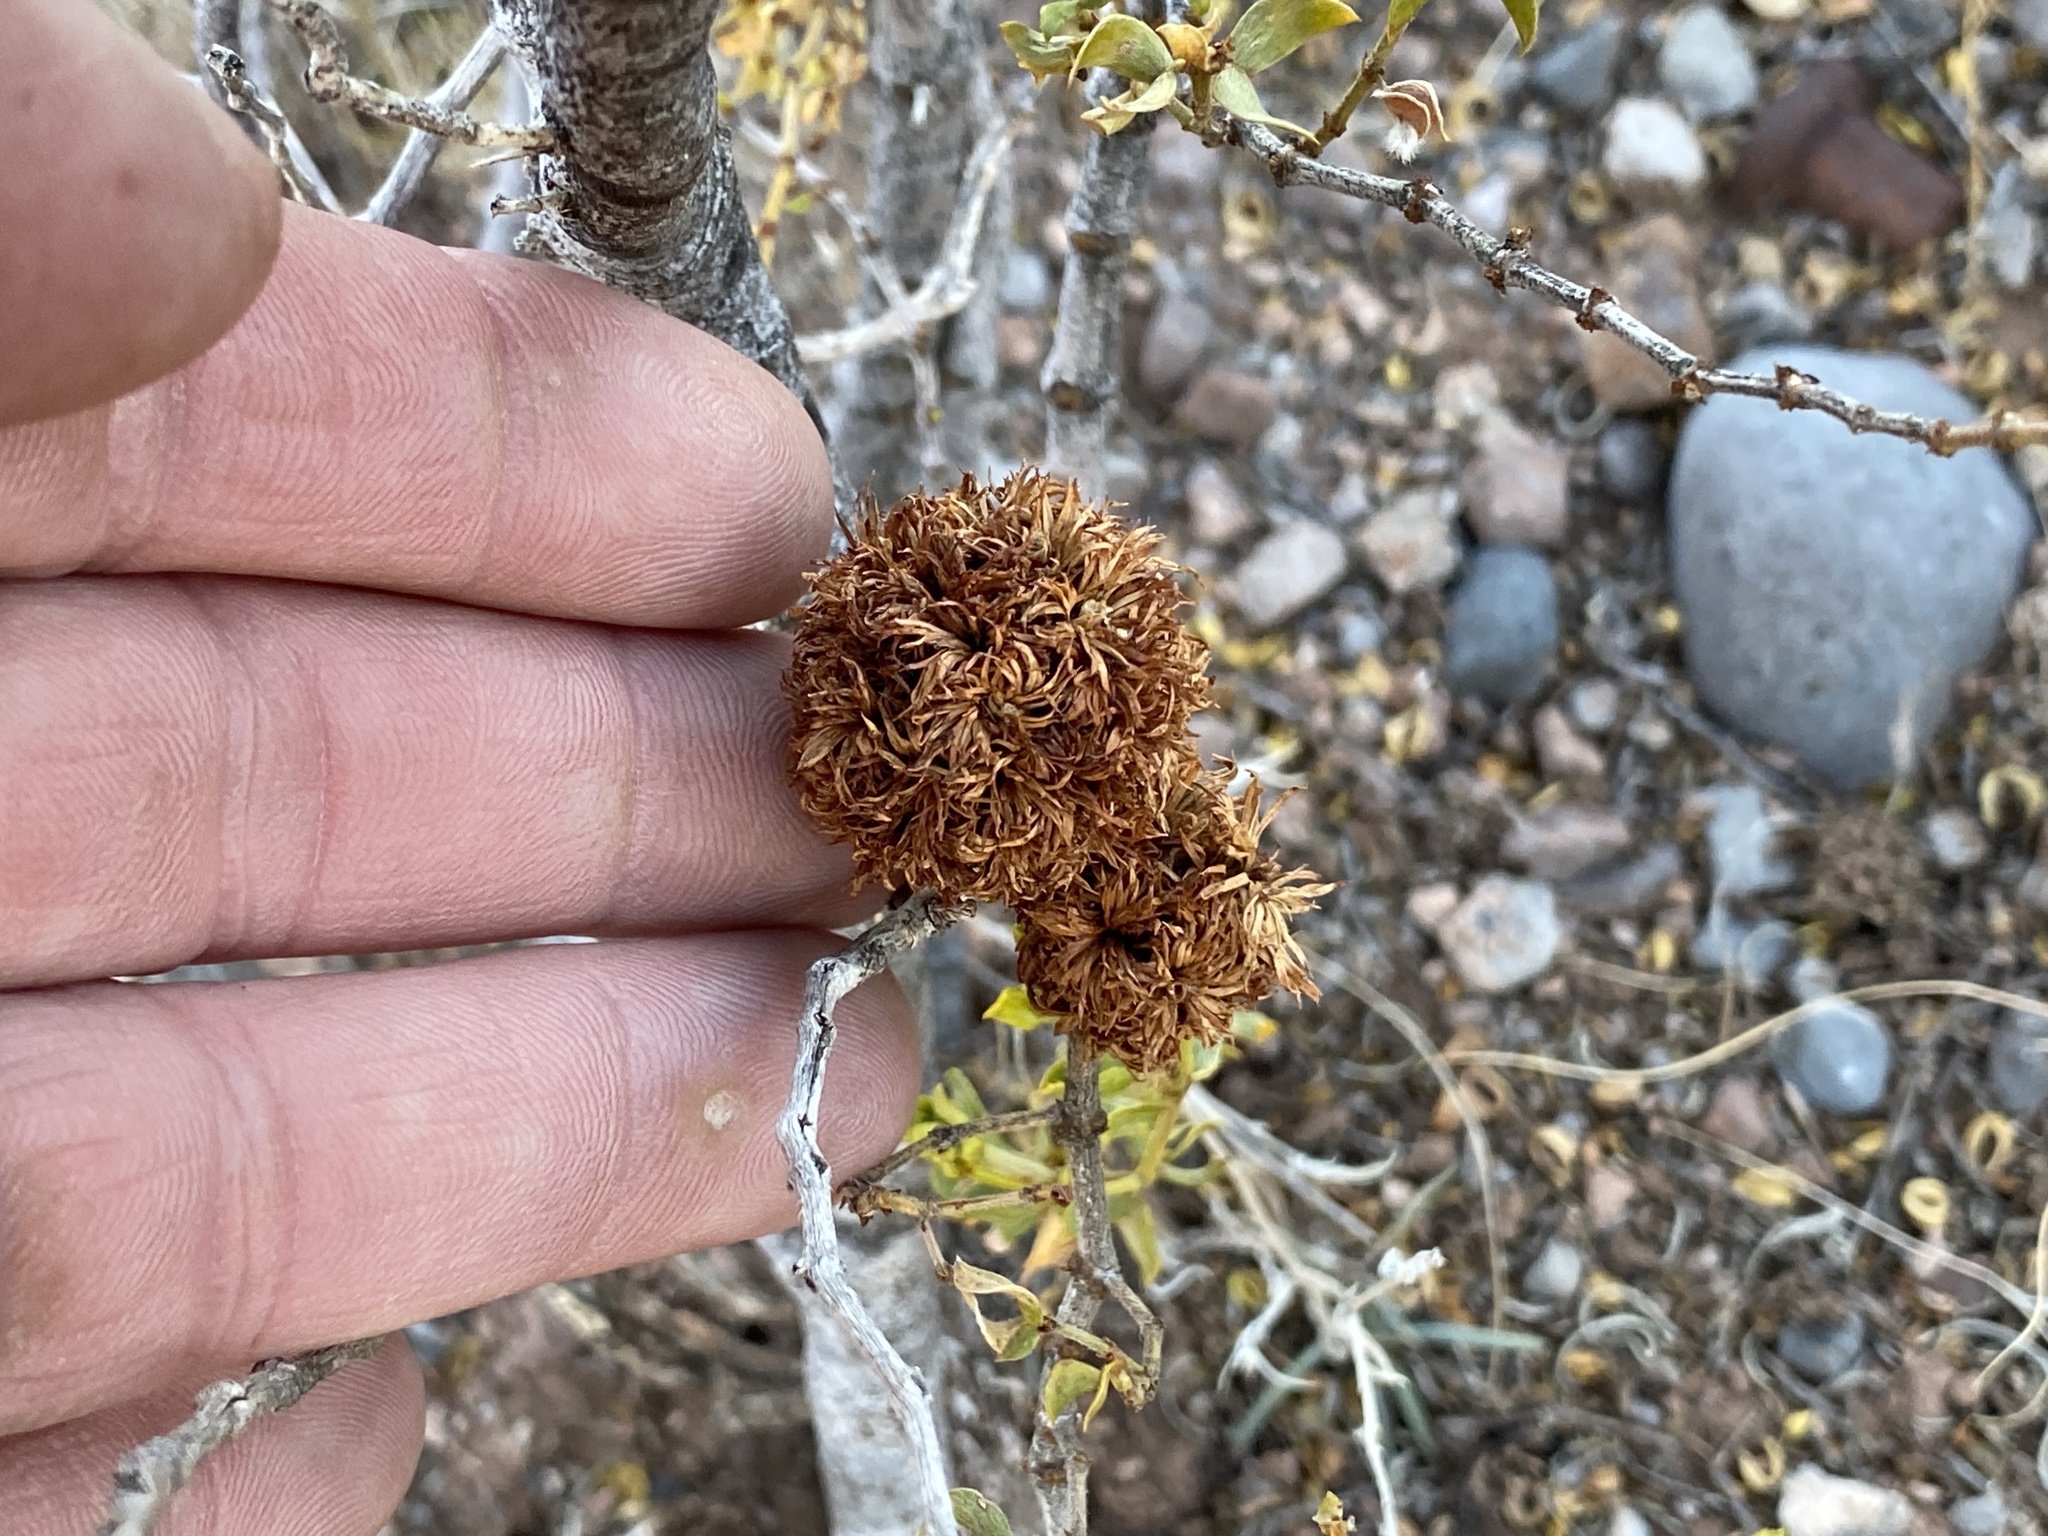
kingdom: Animalia
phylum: Arthropoda
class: Insecta
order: Diptera
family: Cecidomyiidae
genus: Asphondylia
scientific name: Asphondylia auripila
